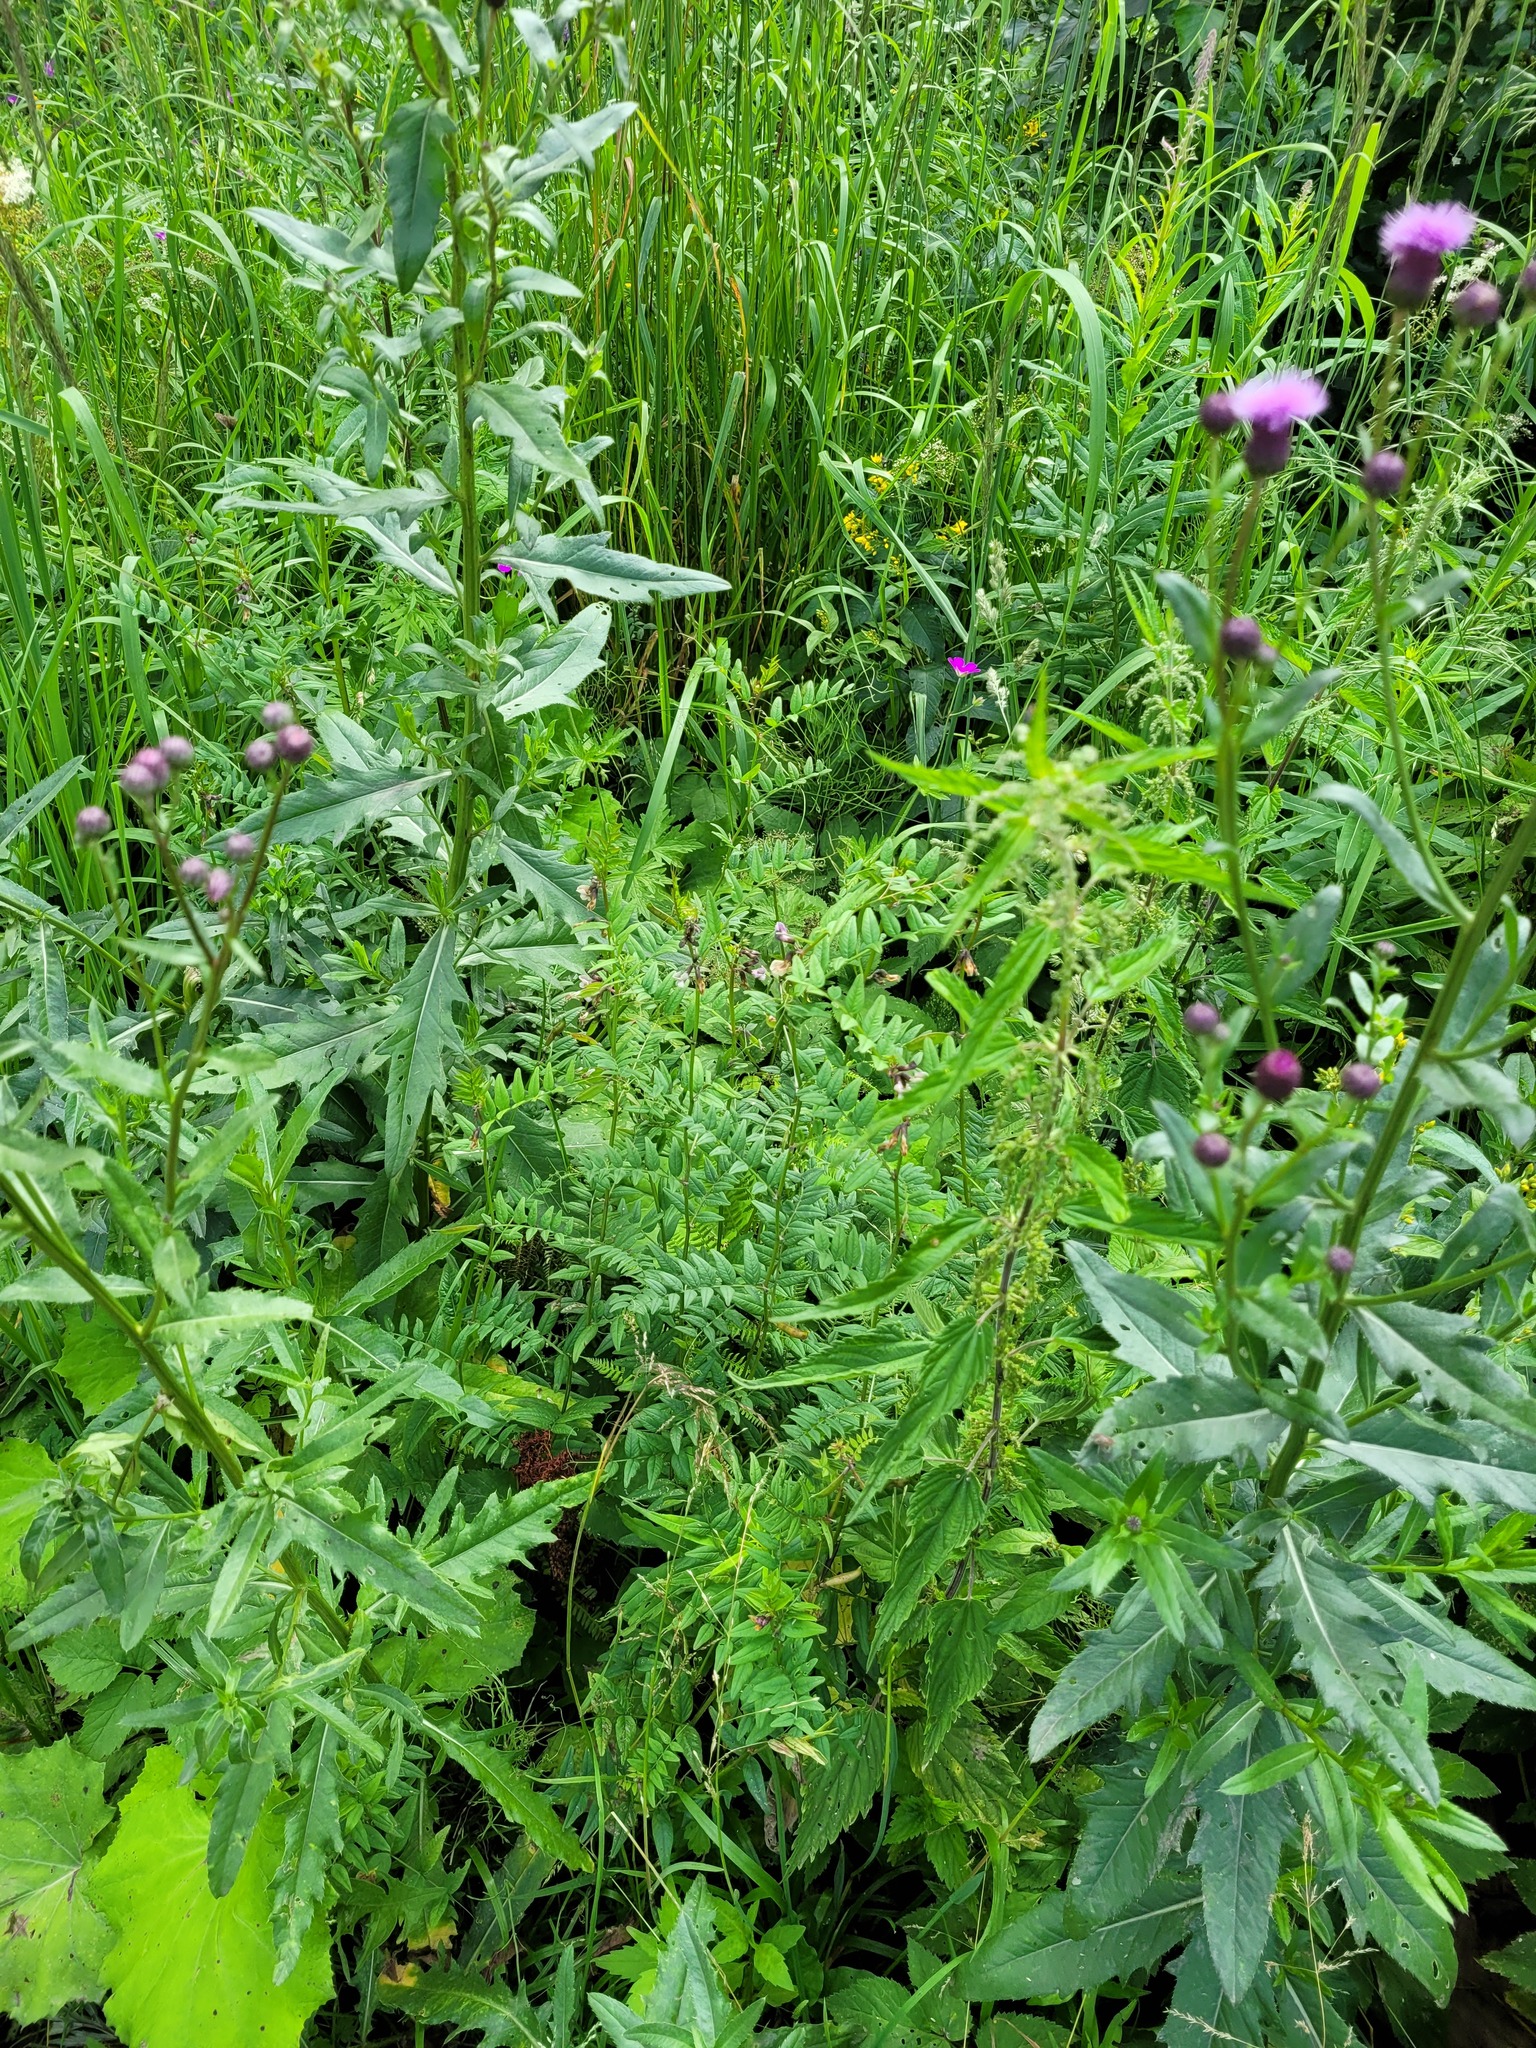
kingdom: Plantae
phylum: Tracheophyta
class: Magnoliopsida
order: Fabales
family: Fabaceae
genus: Vicia
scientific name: Vicia sepium
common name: Bush vetch
